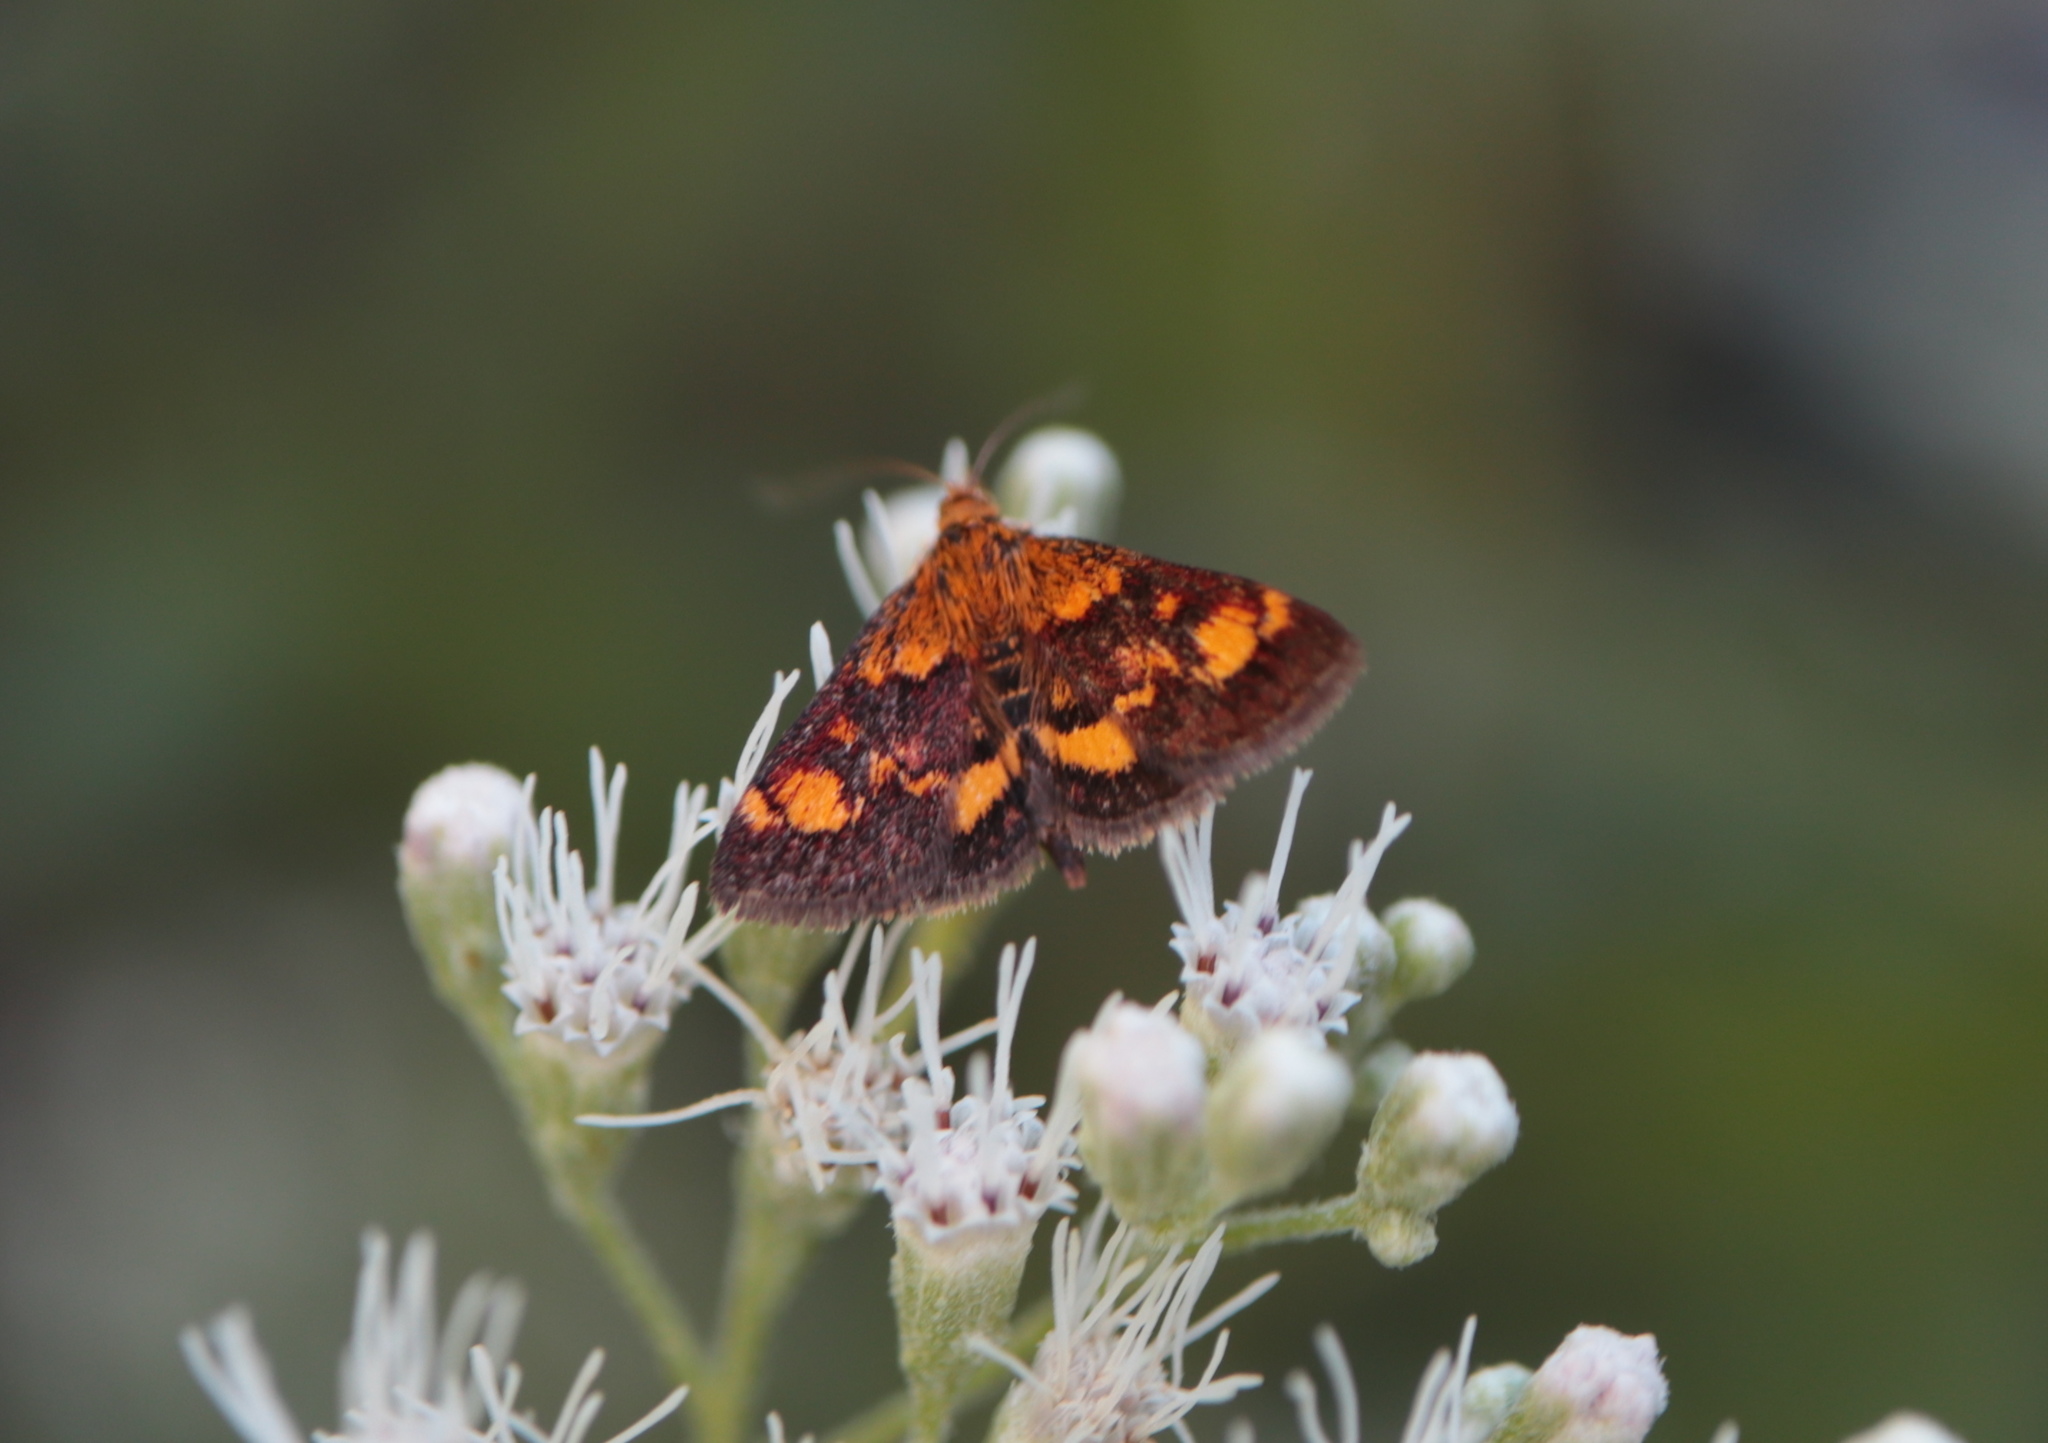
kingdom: Animalia
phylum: Arthropoda
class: Insecta
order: Lepidoptera
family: Crambidae
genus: Pyrausta
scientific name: Pyrausta orphisalis
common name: Orange mint moth
